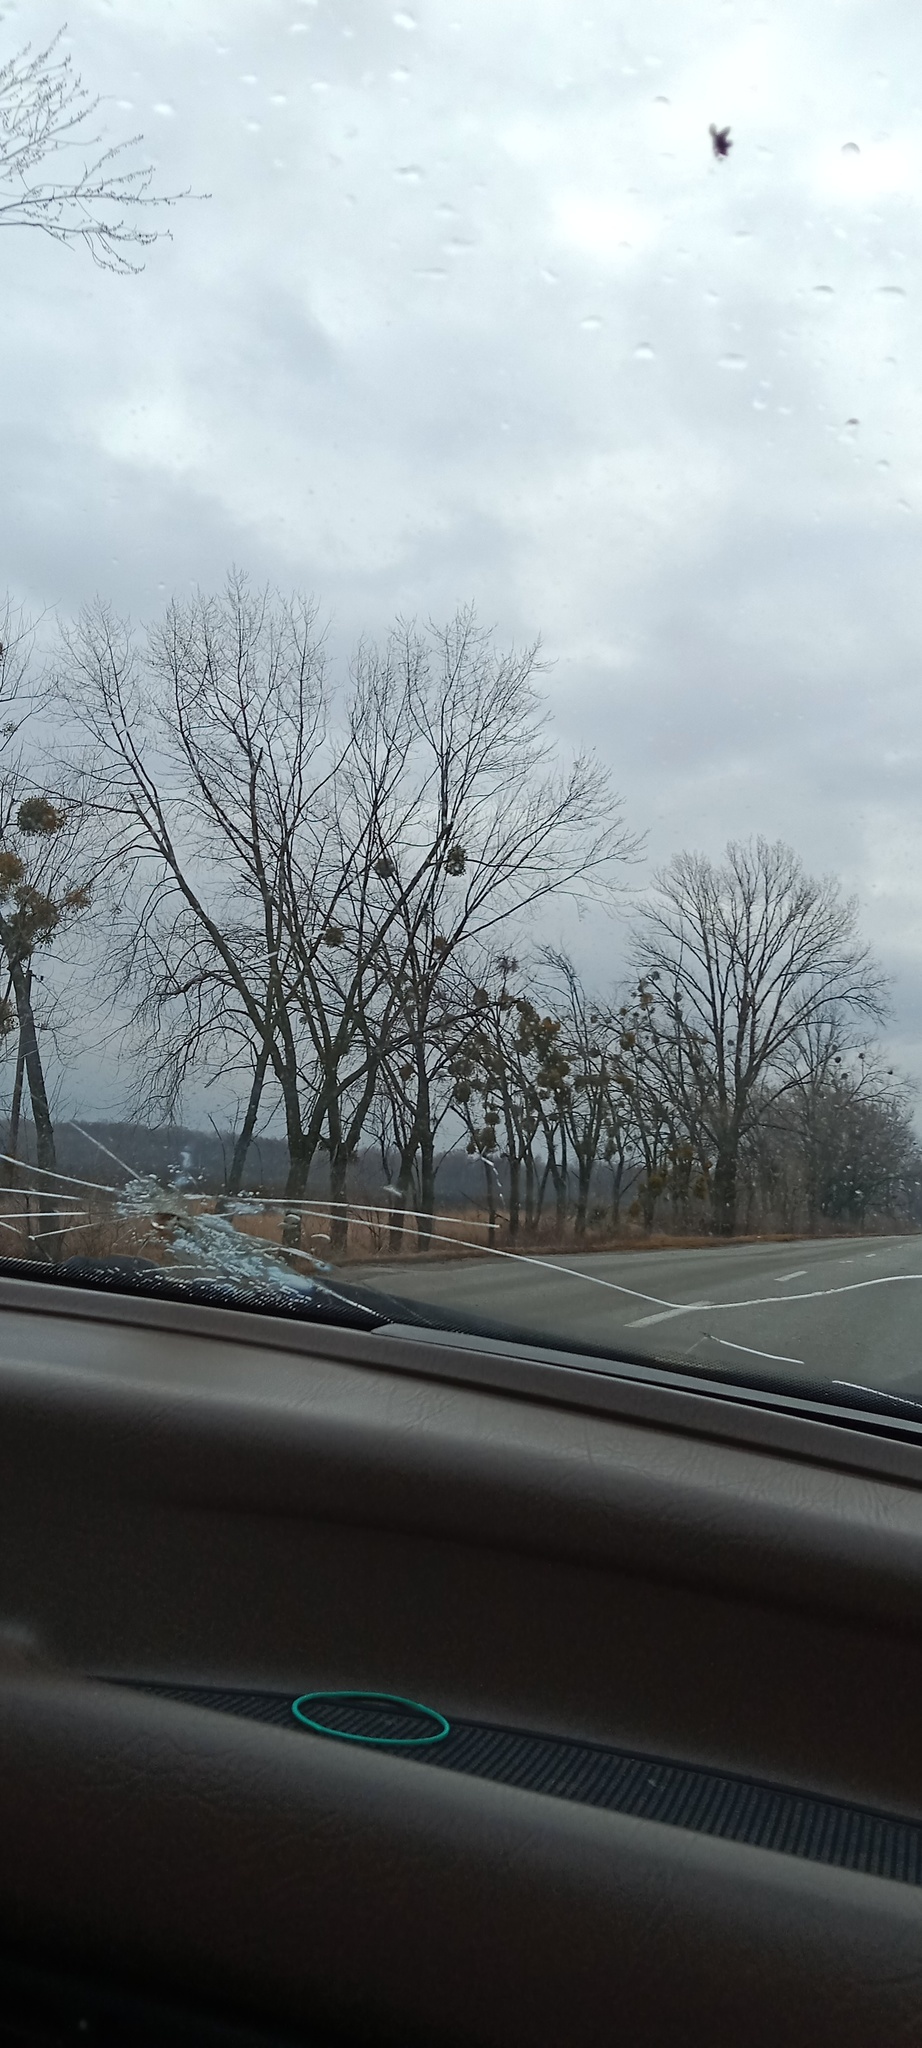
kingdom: Plantae
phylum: Tracheophyta
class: Magnoliopsida
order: Santalales
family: Viscaceae
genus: Viscum
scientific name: Viscum album
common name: Mistletoe
